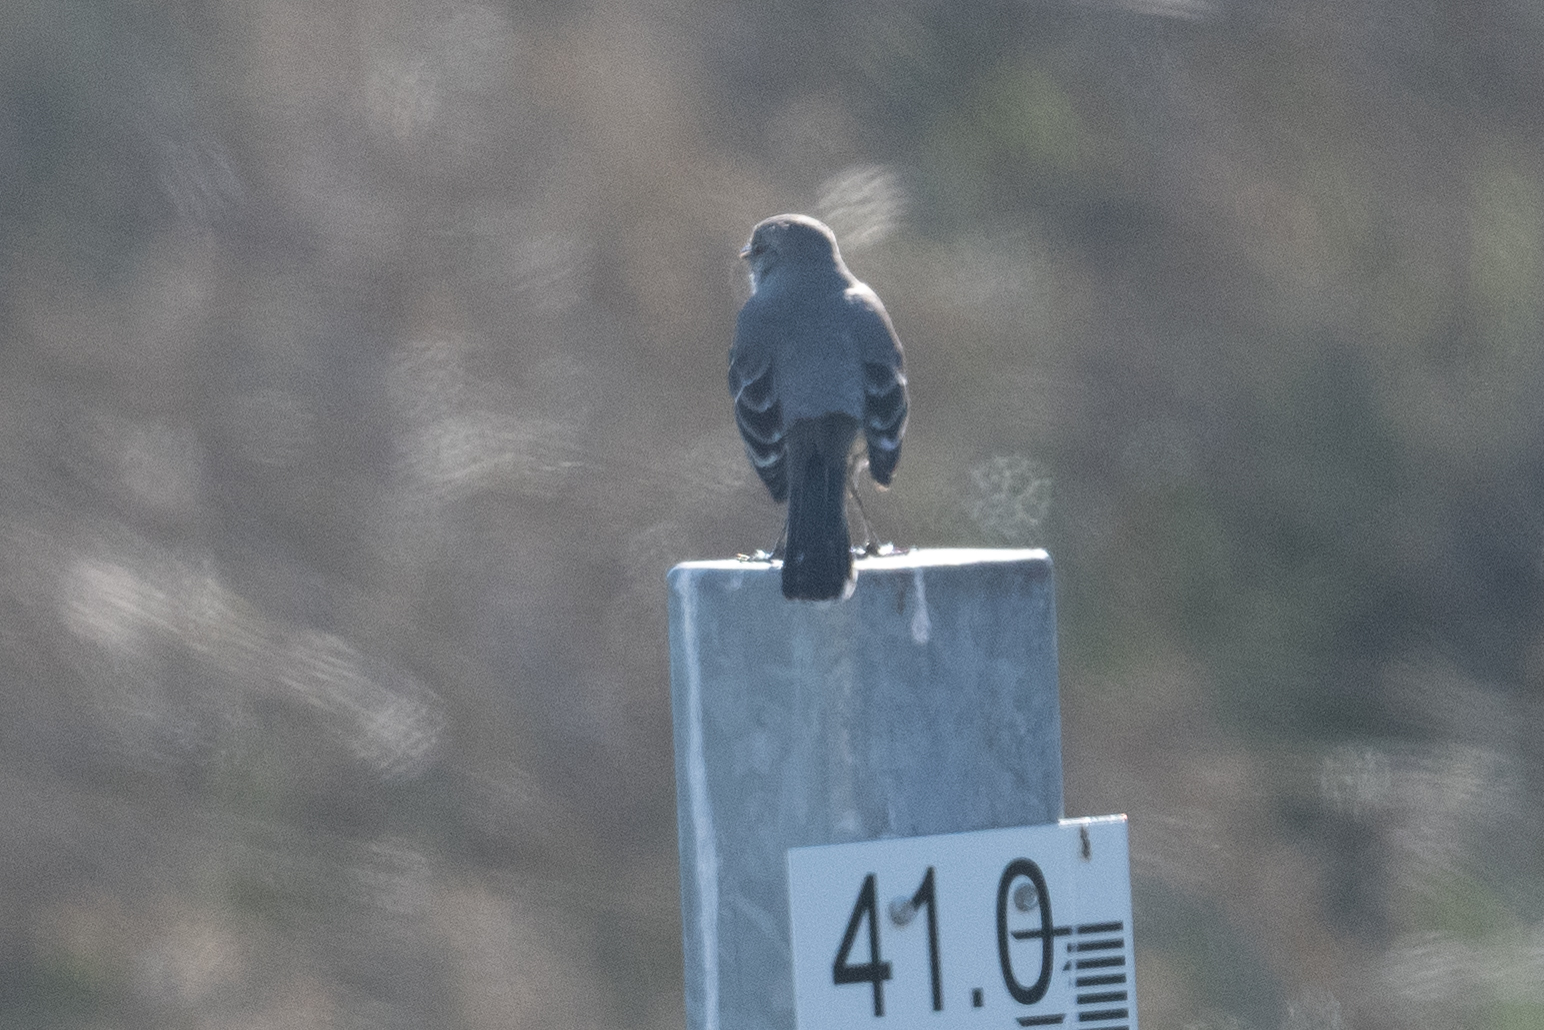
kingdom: Animalia
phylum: Chordata
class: Aves
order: Passeriformes
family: Mimidae
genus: Mimus
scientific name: Mimus polyglottos
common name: Northern mockingbird
